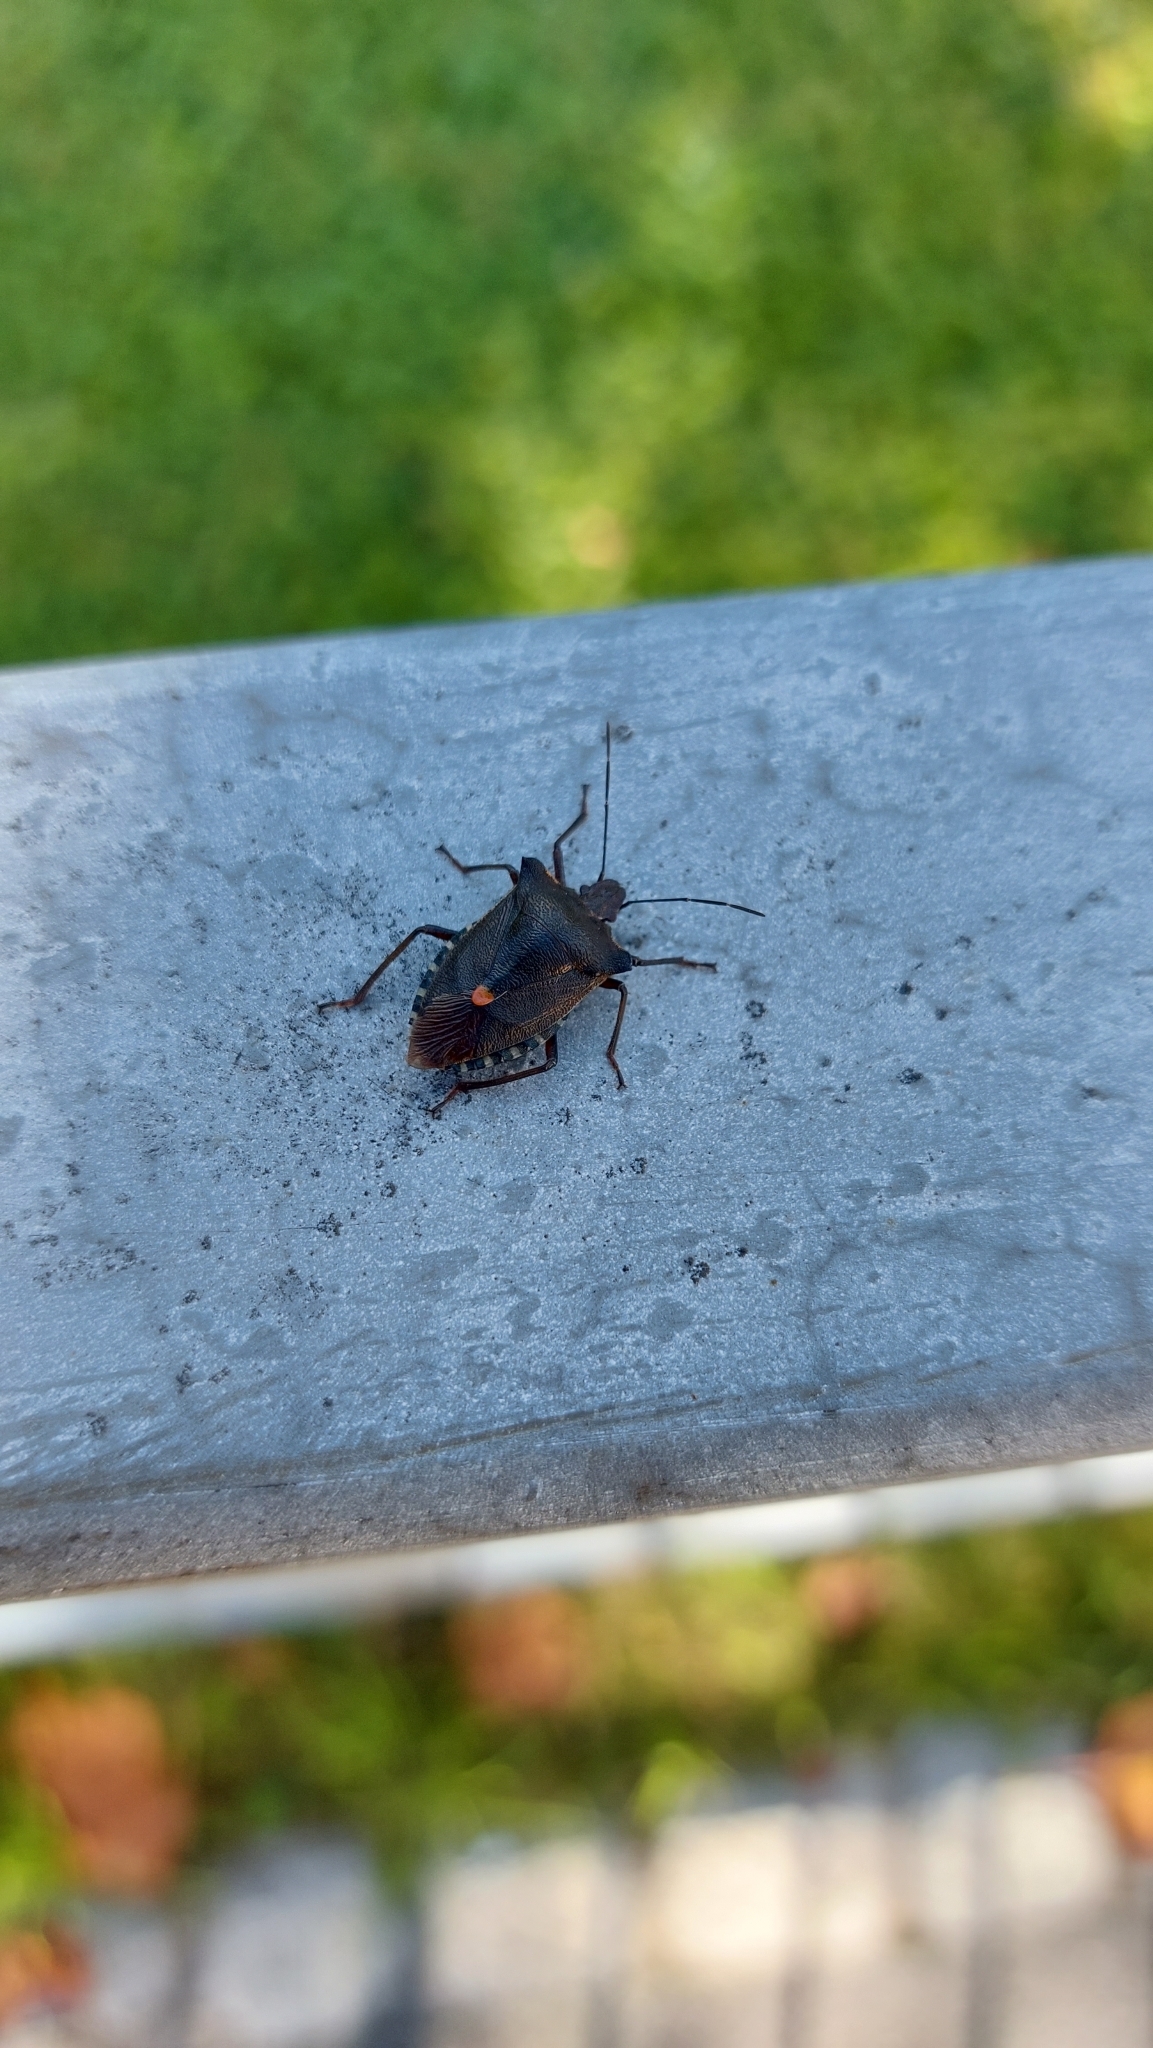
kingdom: Animalia
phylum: Arthropoda
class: Insecta
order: Hemiptera
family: Pentatomidae
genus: Pentatoma
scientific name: Pentatoma rufipes
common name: Forest bug
